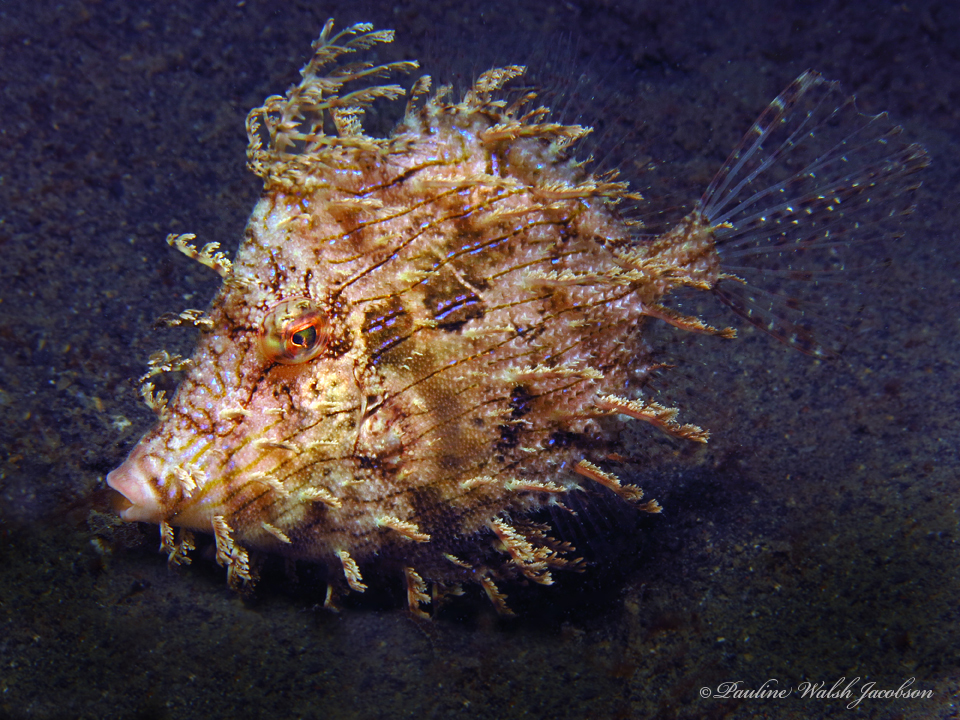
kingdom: Animalia
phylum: Chordata
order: Tetraodontiformes
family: Monacanthidae
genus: Chaetodermis
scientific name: Chaetodermis penicilligerus
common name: Leafy filefish
